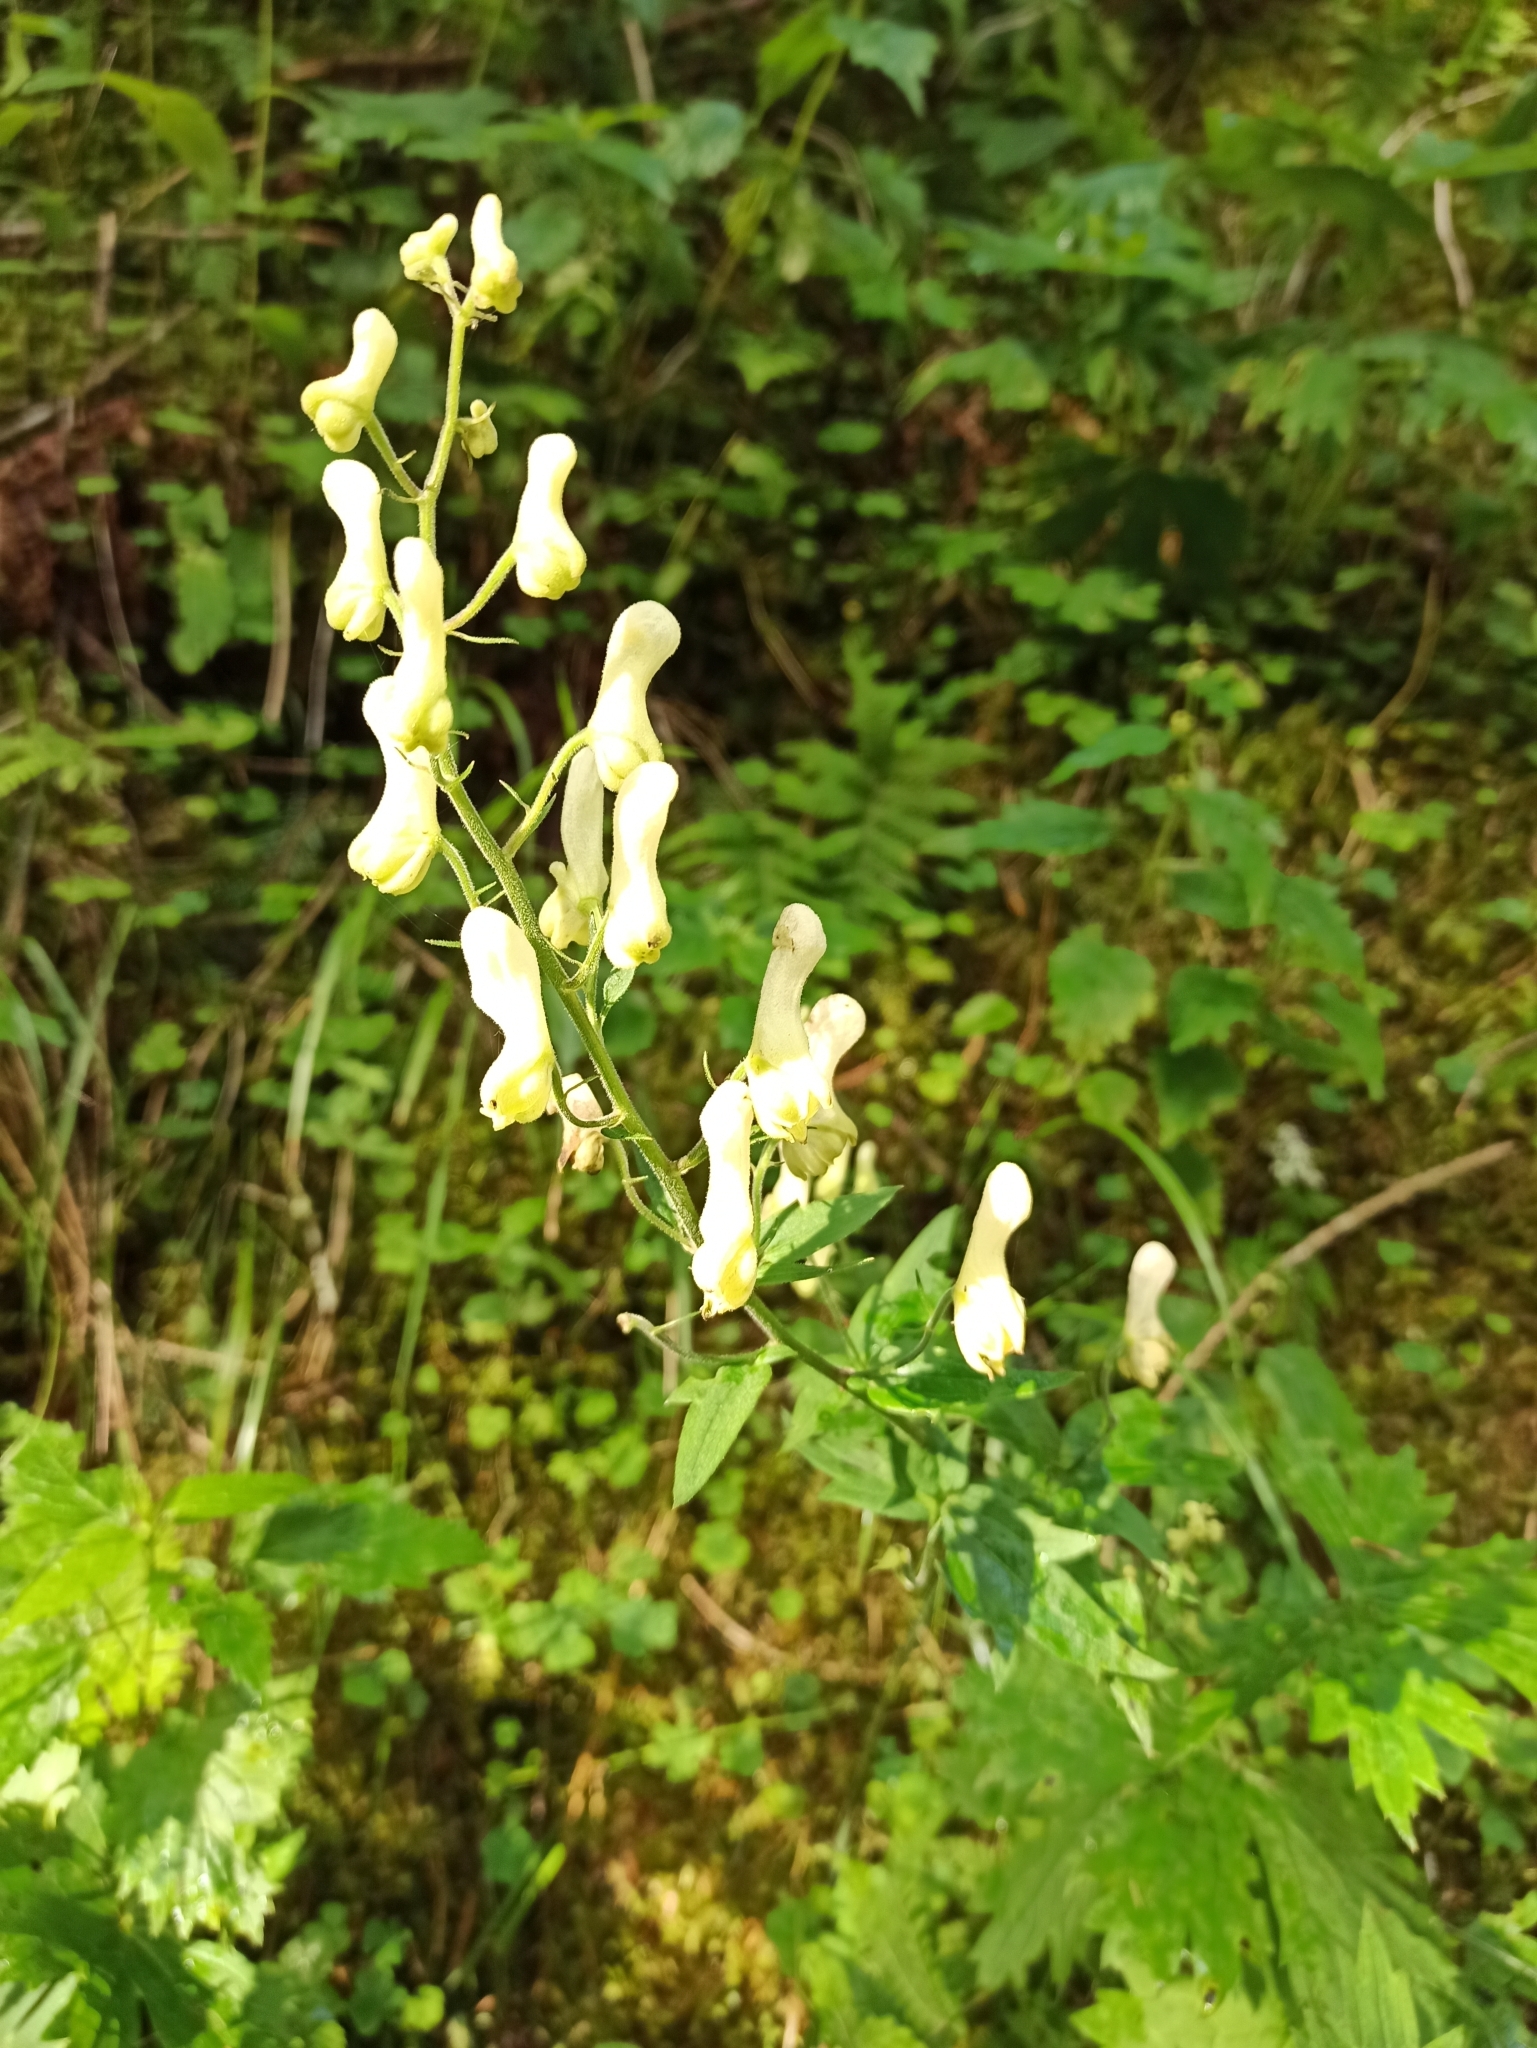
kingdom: Plantae
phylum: Tracheophyta
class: Magnoliopsida
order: Ranunculales
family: Ranunculaceae
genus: Aconitum
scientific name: Aconitum lycoctonum
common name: Wolf's-bane
